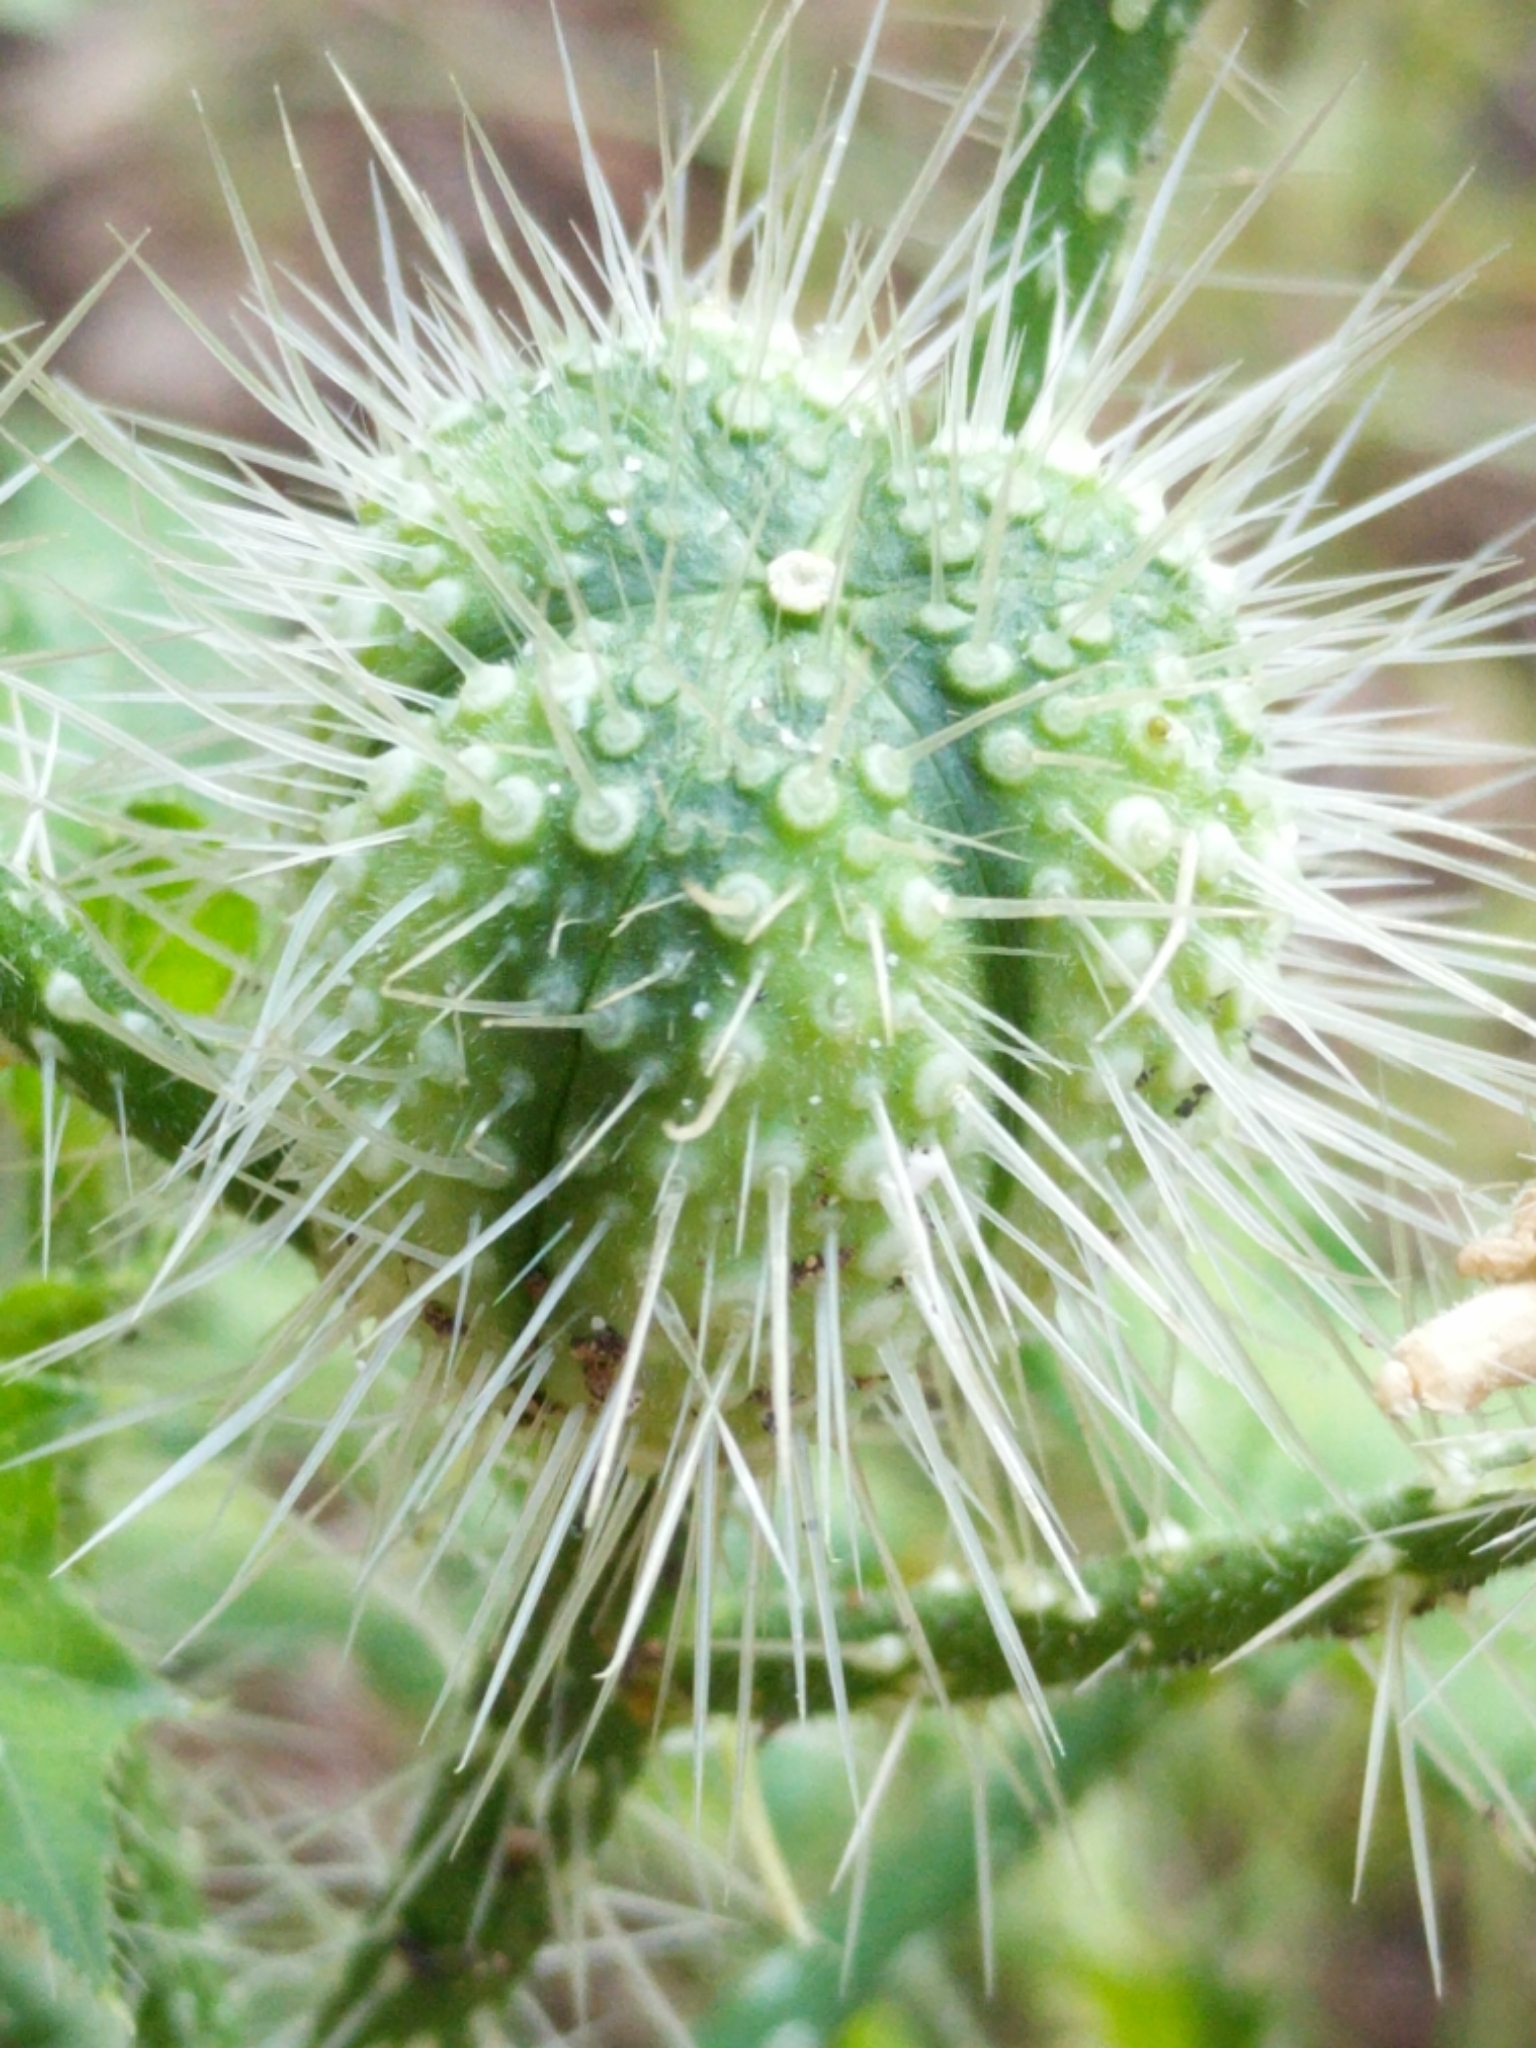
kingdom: Plantae
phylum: Tracheophyta
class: Magnoliopsida
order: Malpighiales
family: Euphorbiaceae
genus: Cnidoscolus
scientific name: Cnidoscolus texanus
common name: Texas bull-nettle
